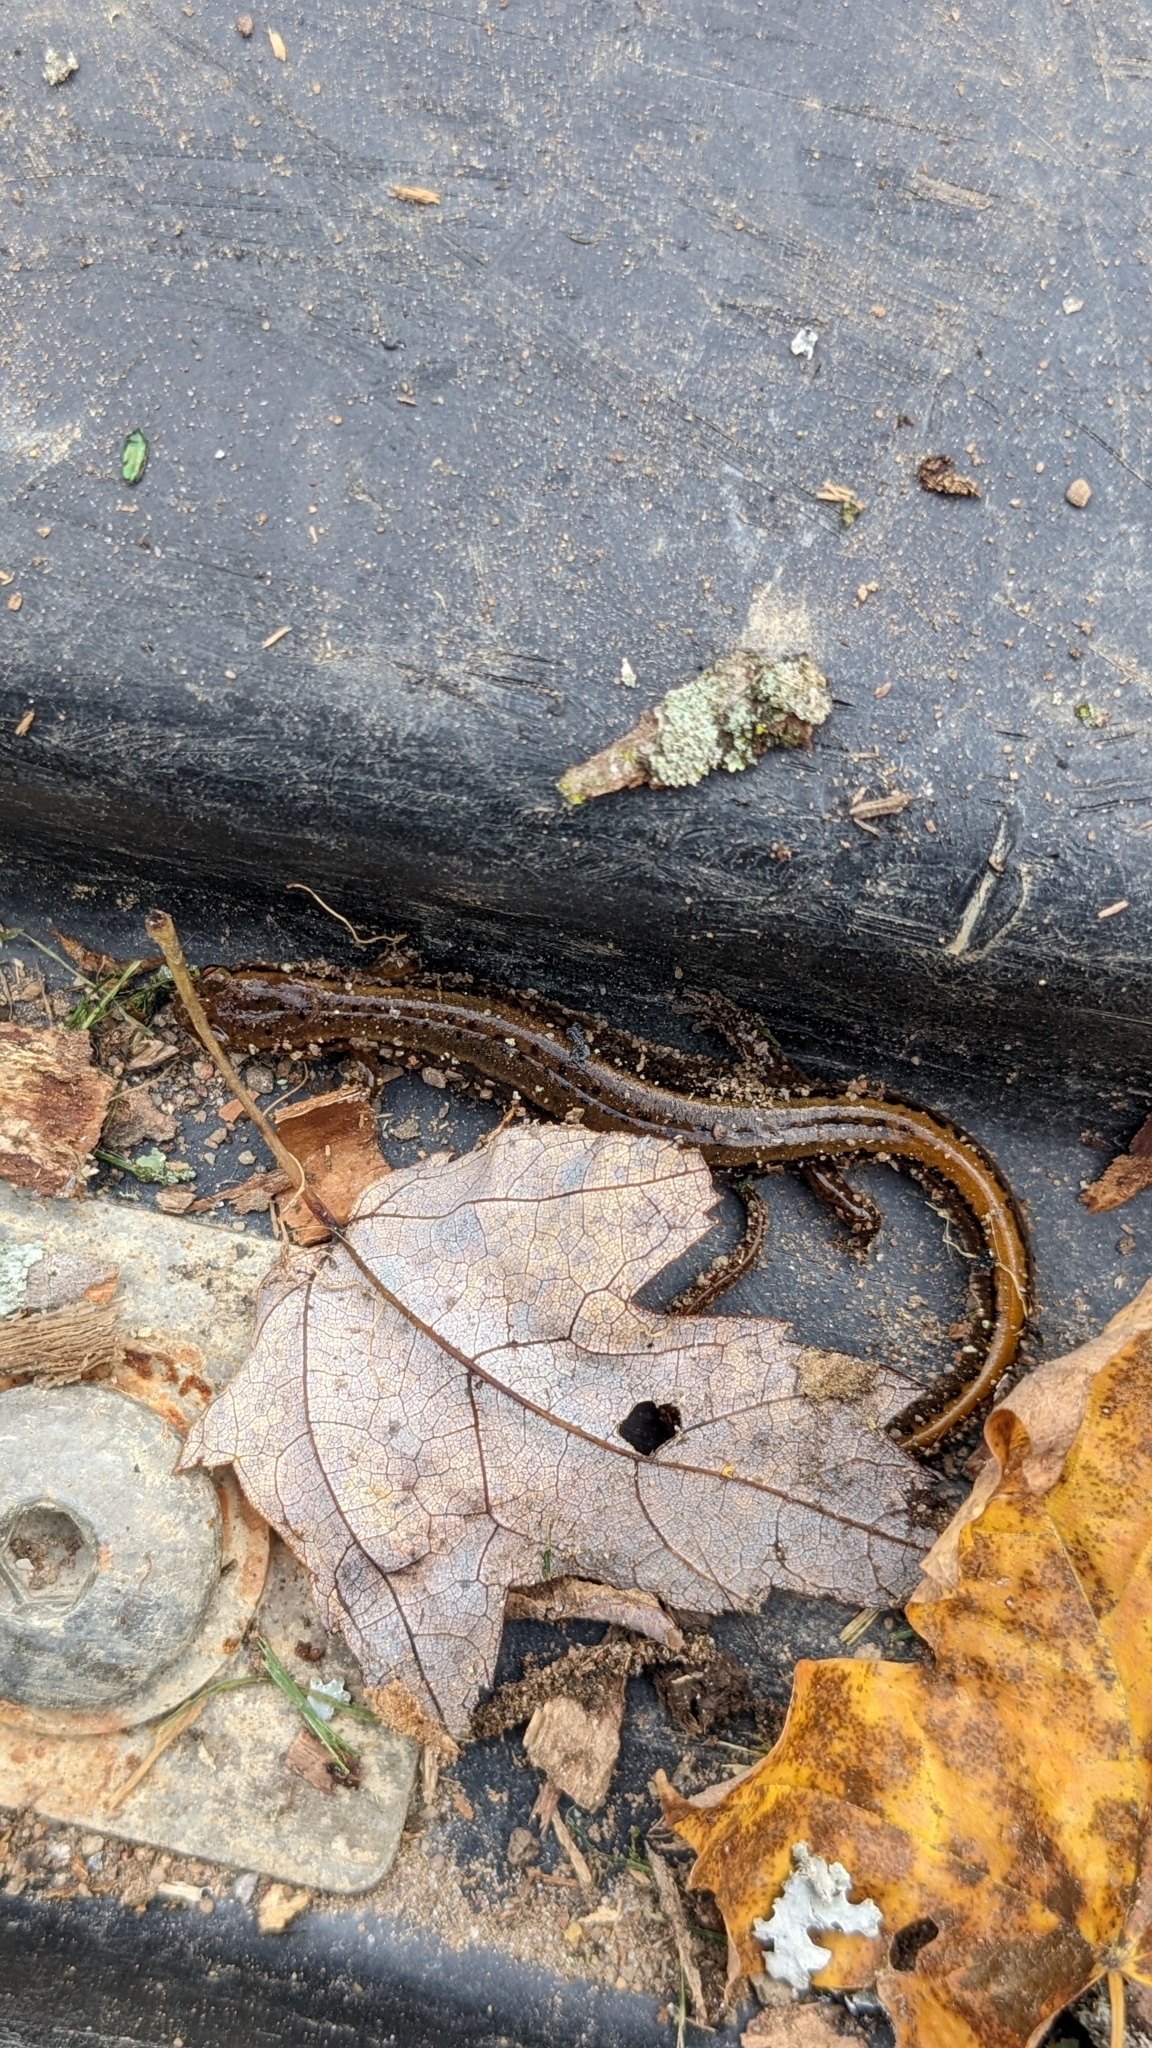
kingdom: Animalia
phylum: Chordata
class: Amphibia
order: Caudata
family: Plethodontidae
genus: Eurycea
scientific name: Eurycea bislineata
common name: Northern two-lined salamander
